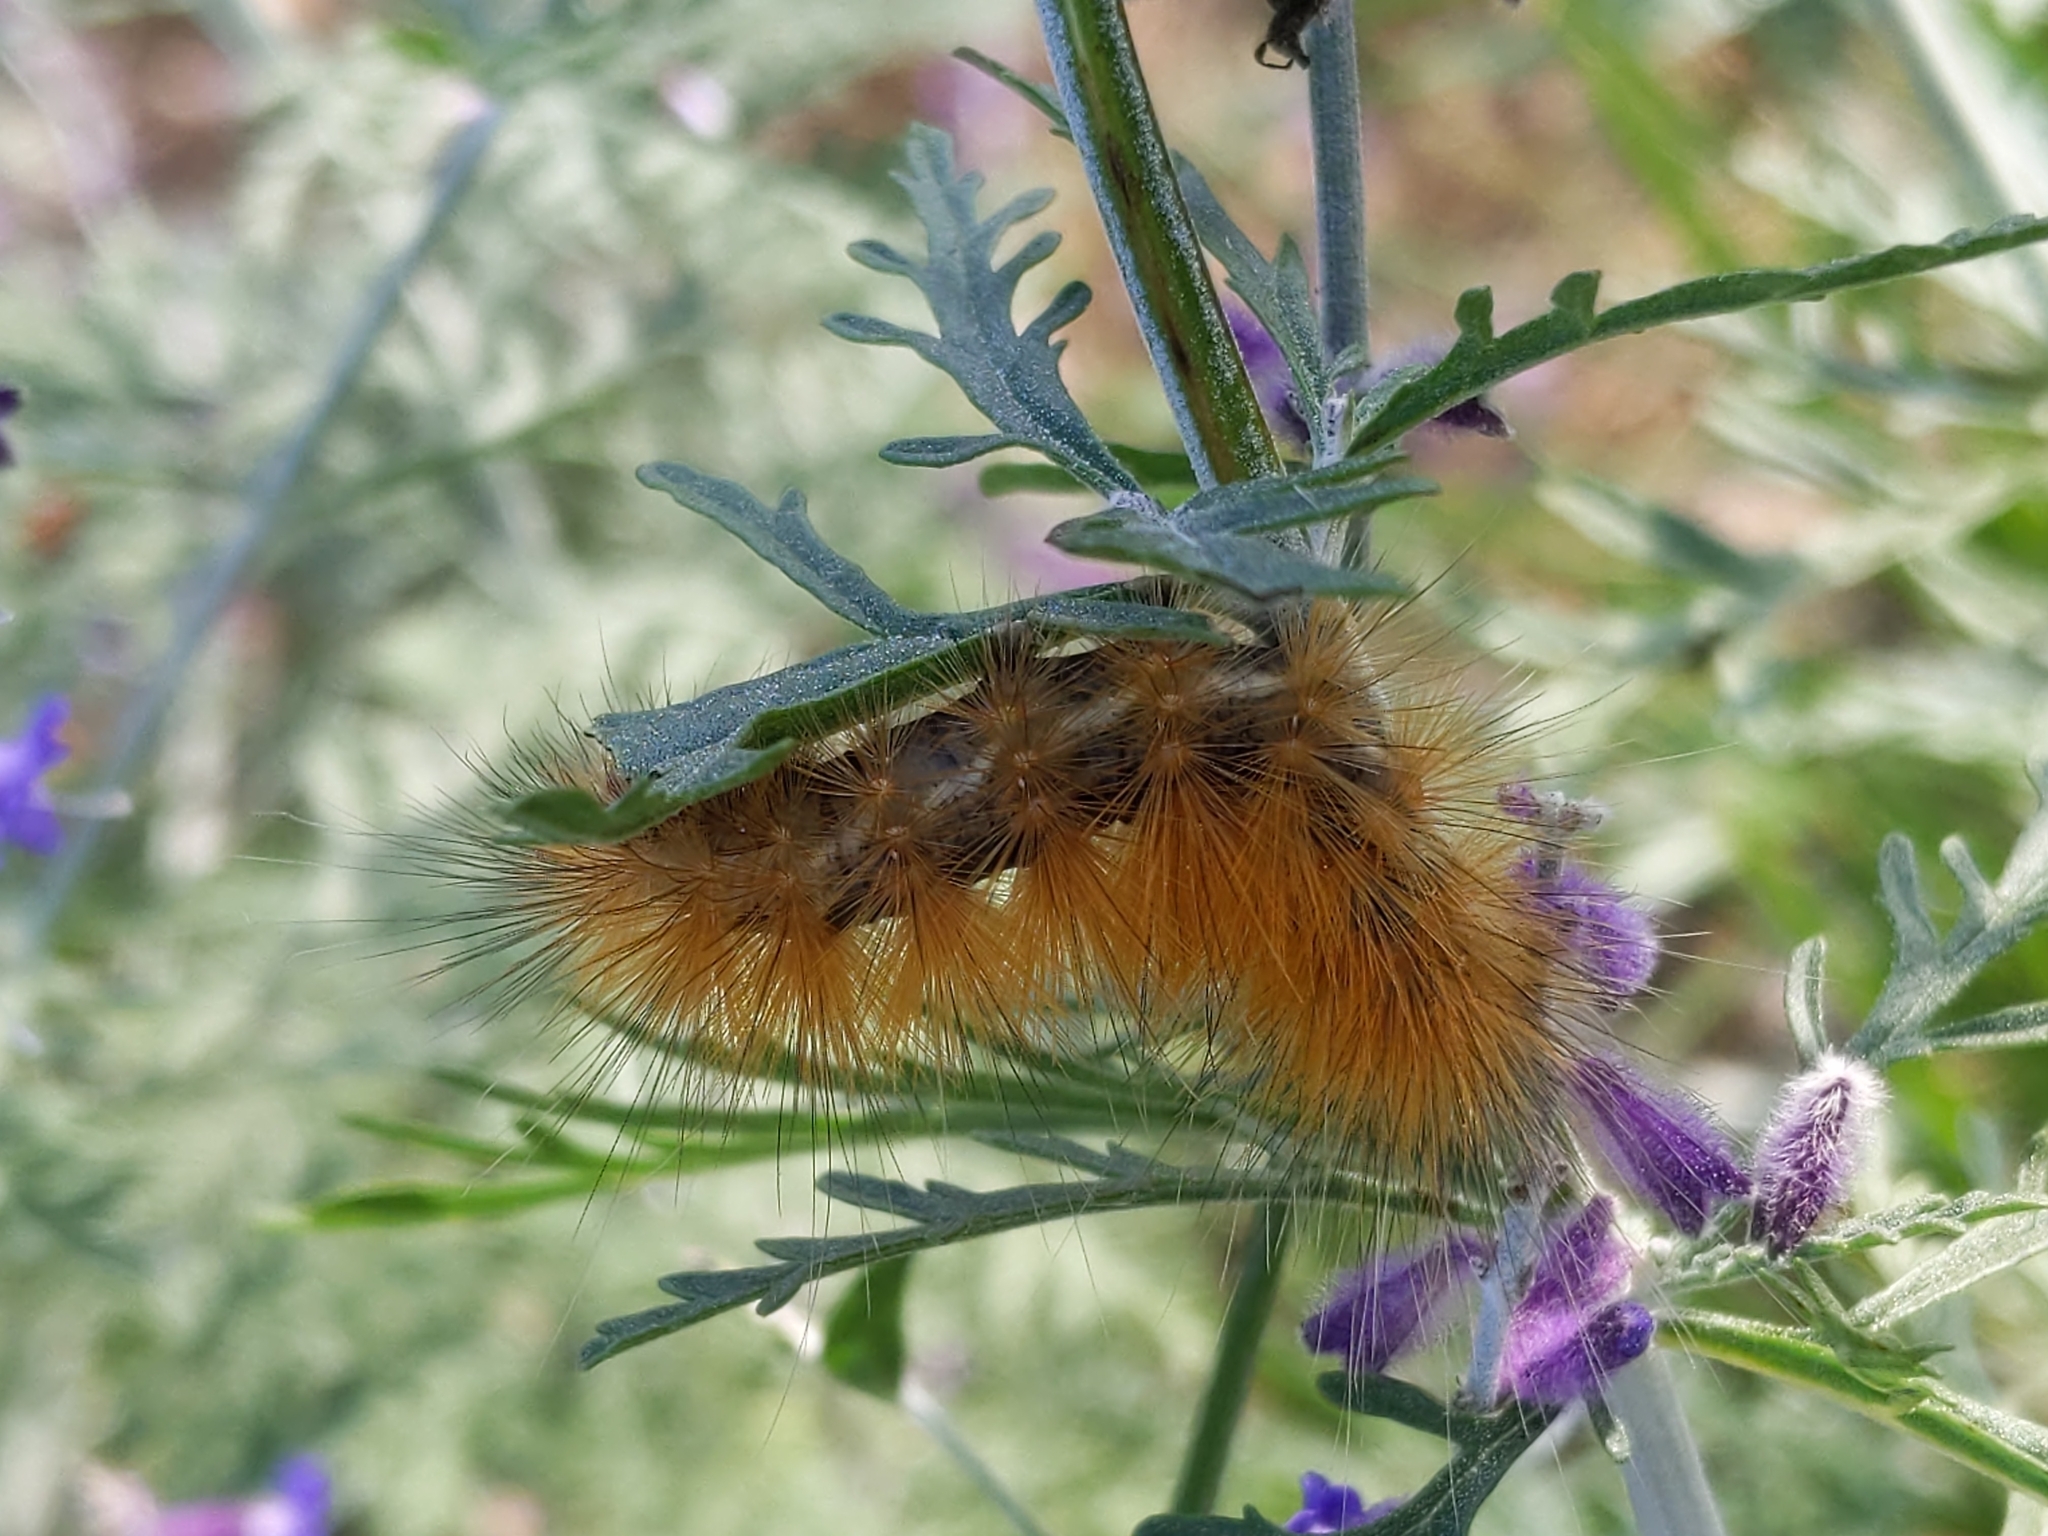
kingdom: Animalia
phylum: Arthropoda
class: Insecta
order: Lepidoptera
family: Erebidae
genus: Spilosoma
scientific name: Spilosoma virginica
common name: Virginia tiger moth
